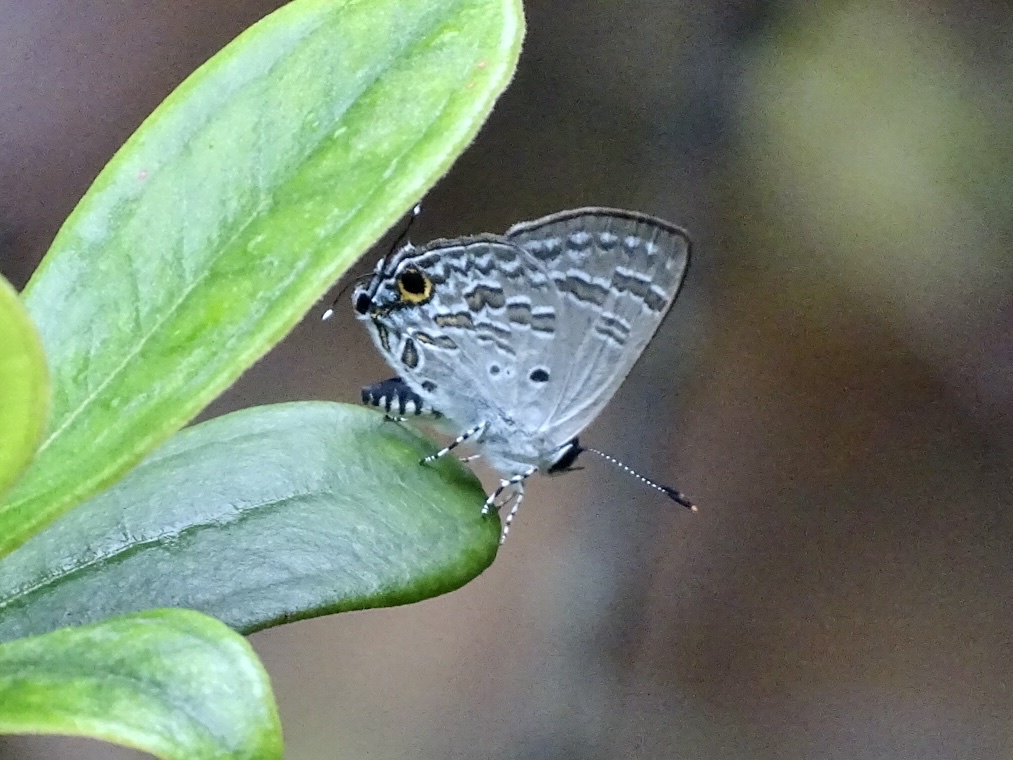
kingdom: Animalia
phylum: Arthropoda
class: Insecta
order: Lepidoptera
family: Lycaenidae
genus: Sinthusa
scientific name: Sinthusa chandrana
